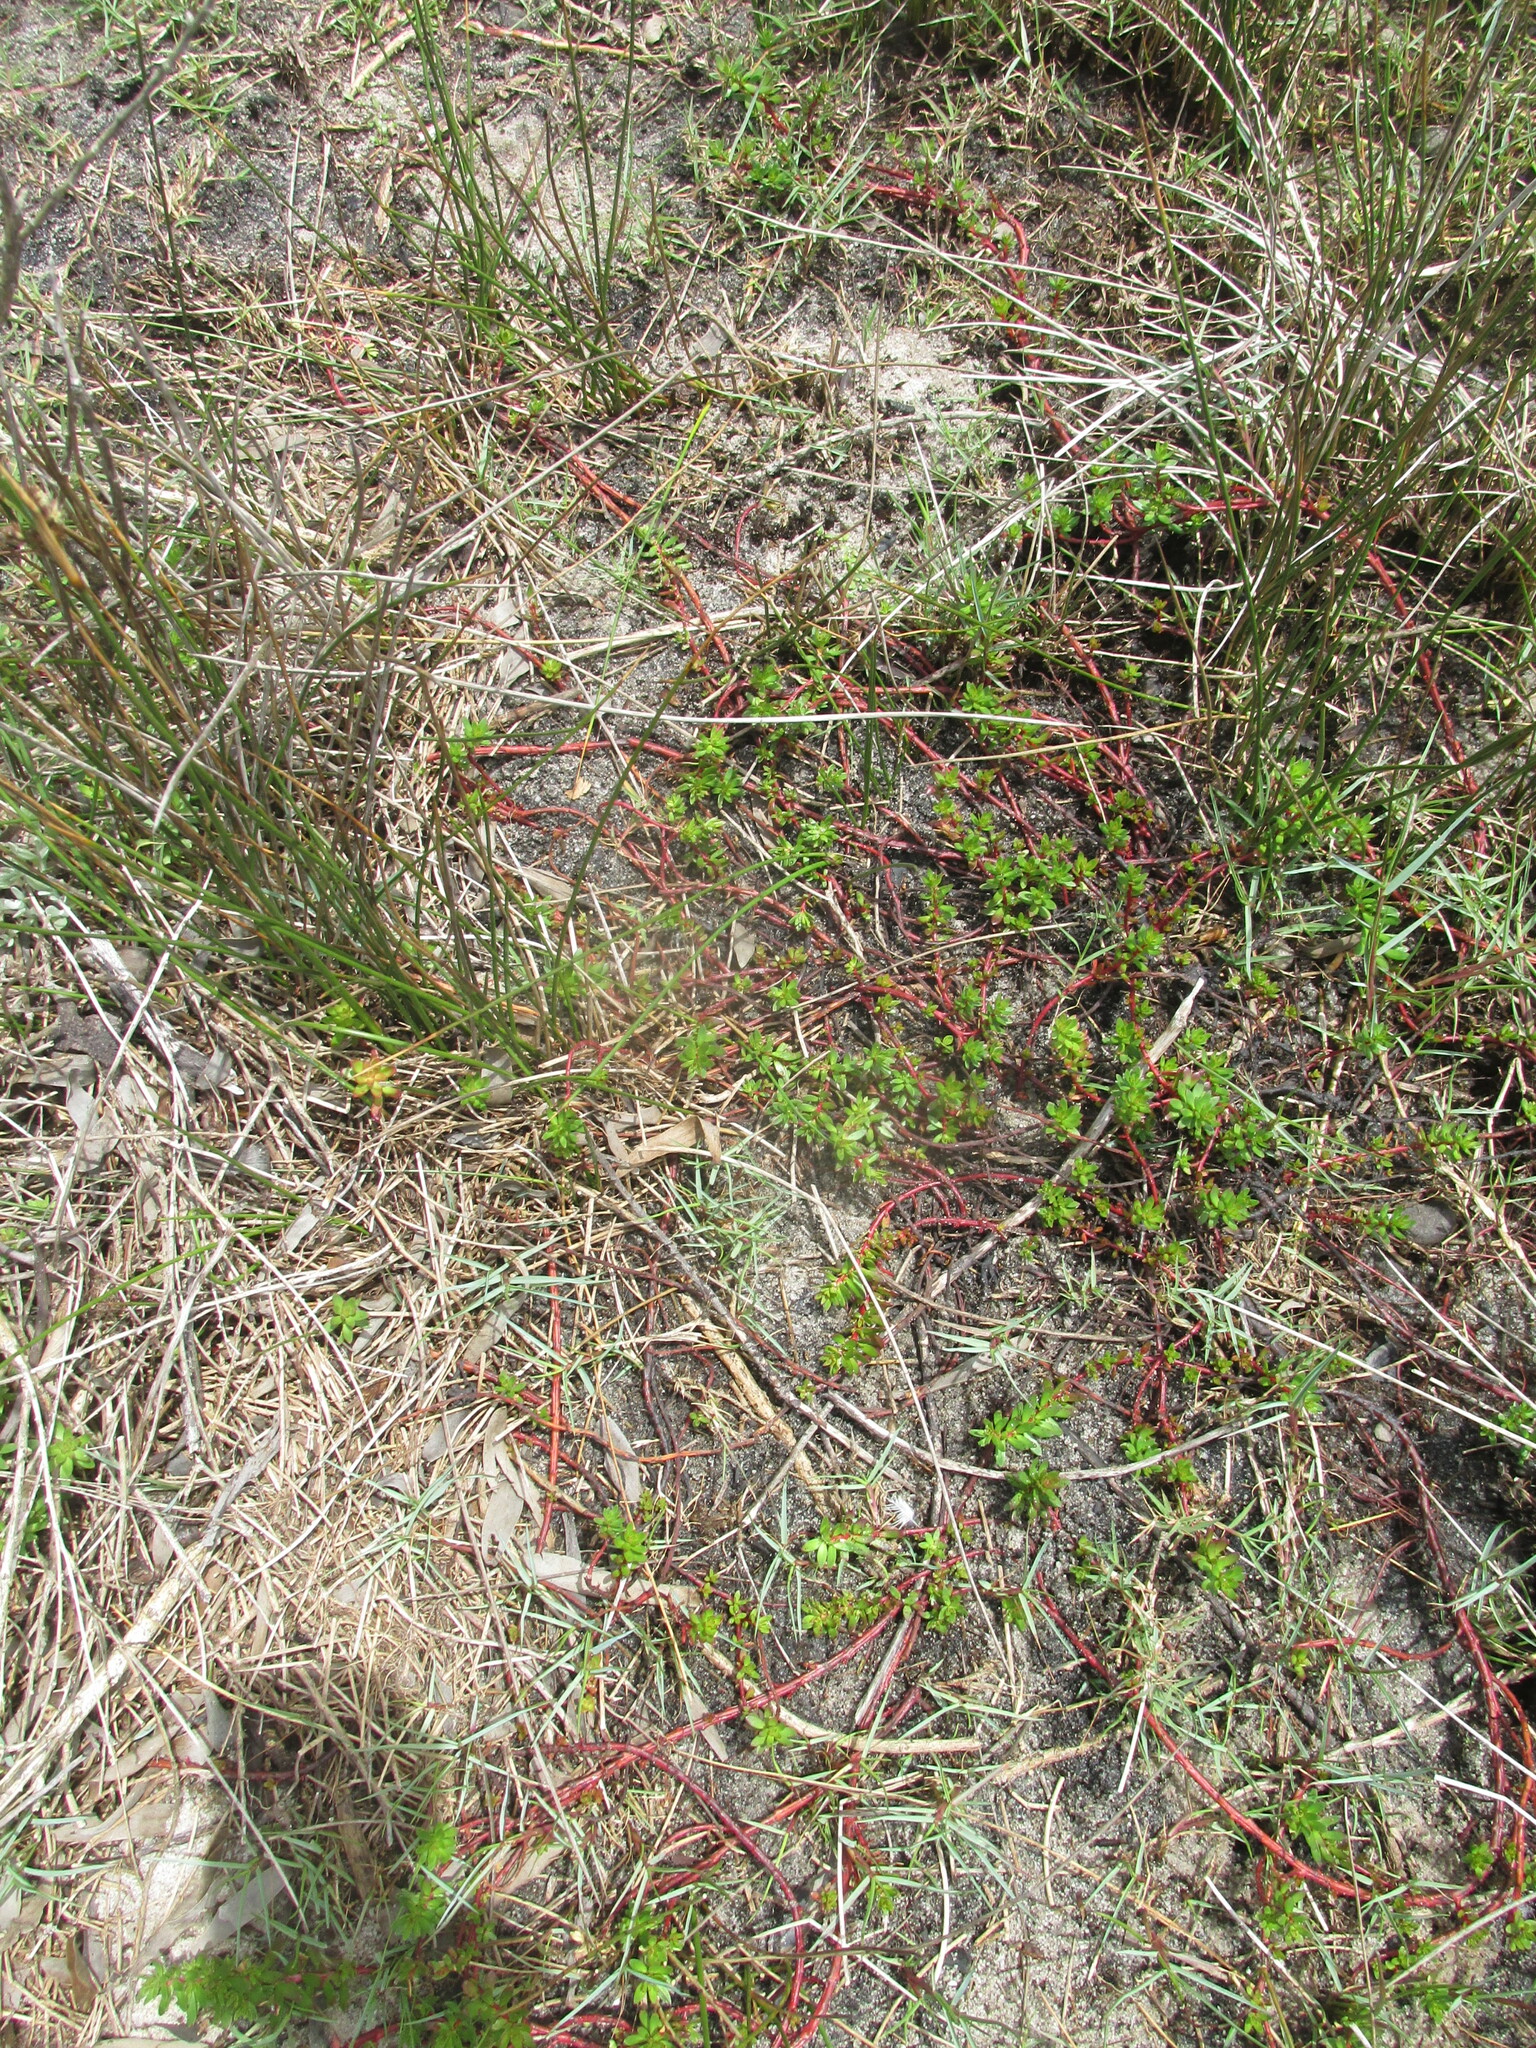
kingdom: Plantae
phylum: Tracheophyta
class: Magnoliopsida
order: Saxifragales
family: Haloragaceae
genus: Laurembergia
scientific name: Laurembergia repens
